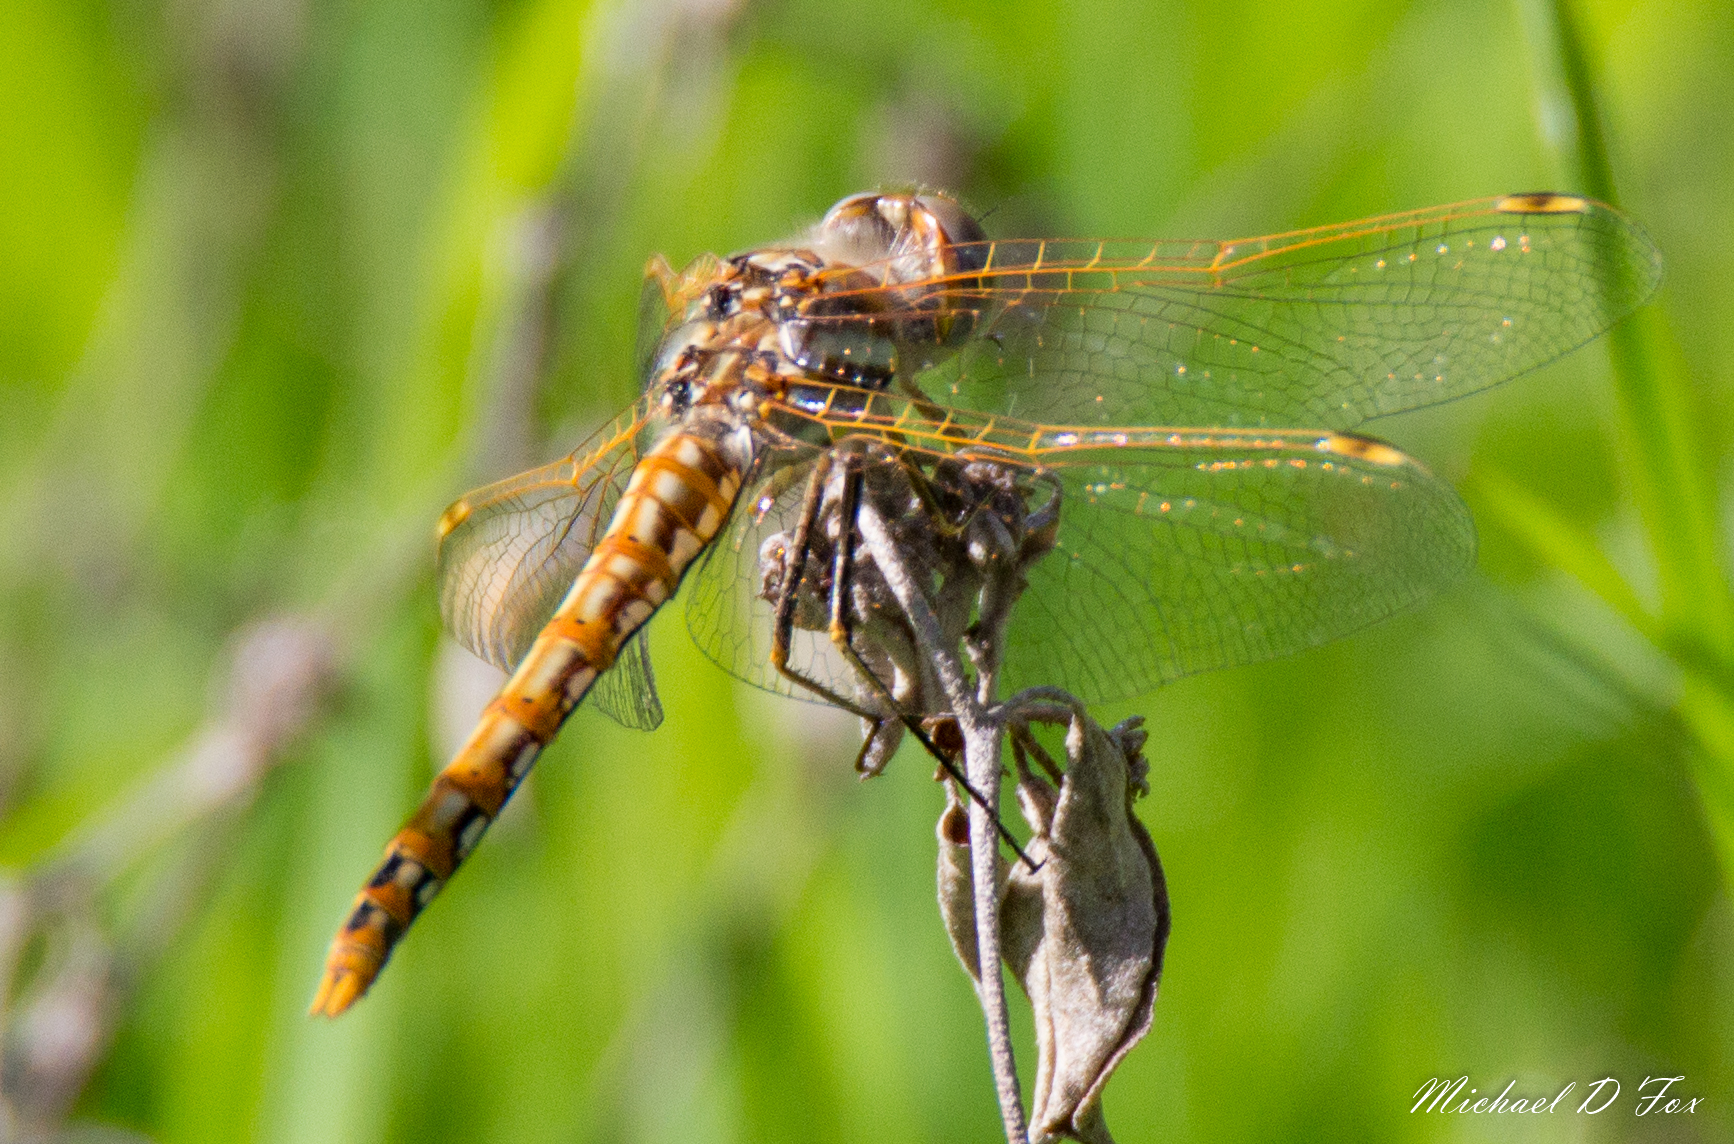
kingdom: Animalia
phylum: Arthropoda
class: Insecta
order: Odonata
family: Libellulidae
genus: Sympetrum
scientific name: Sympetrum corruptum
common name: Variegated meadowhawk
